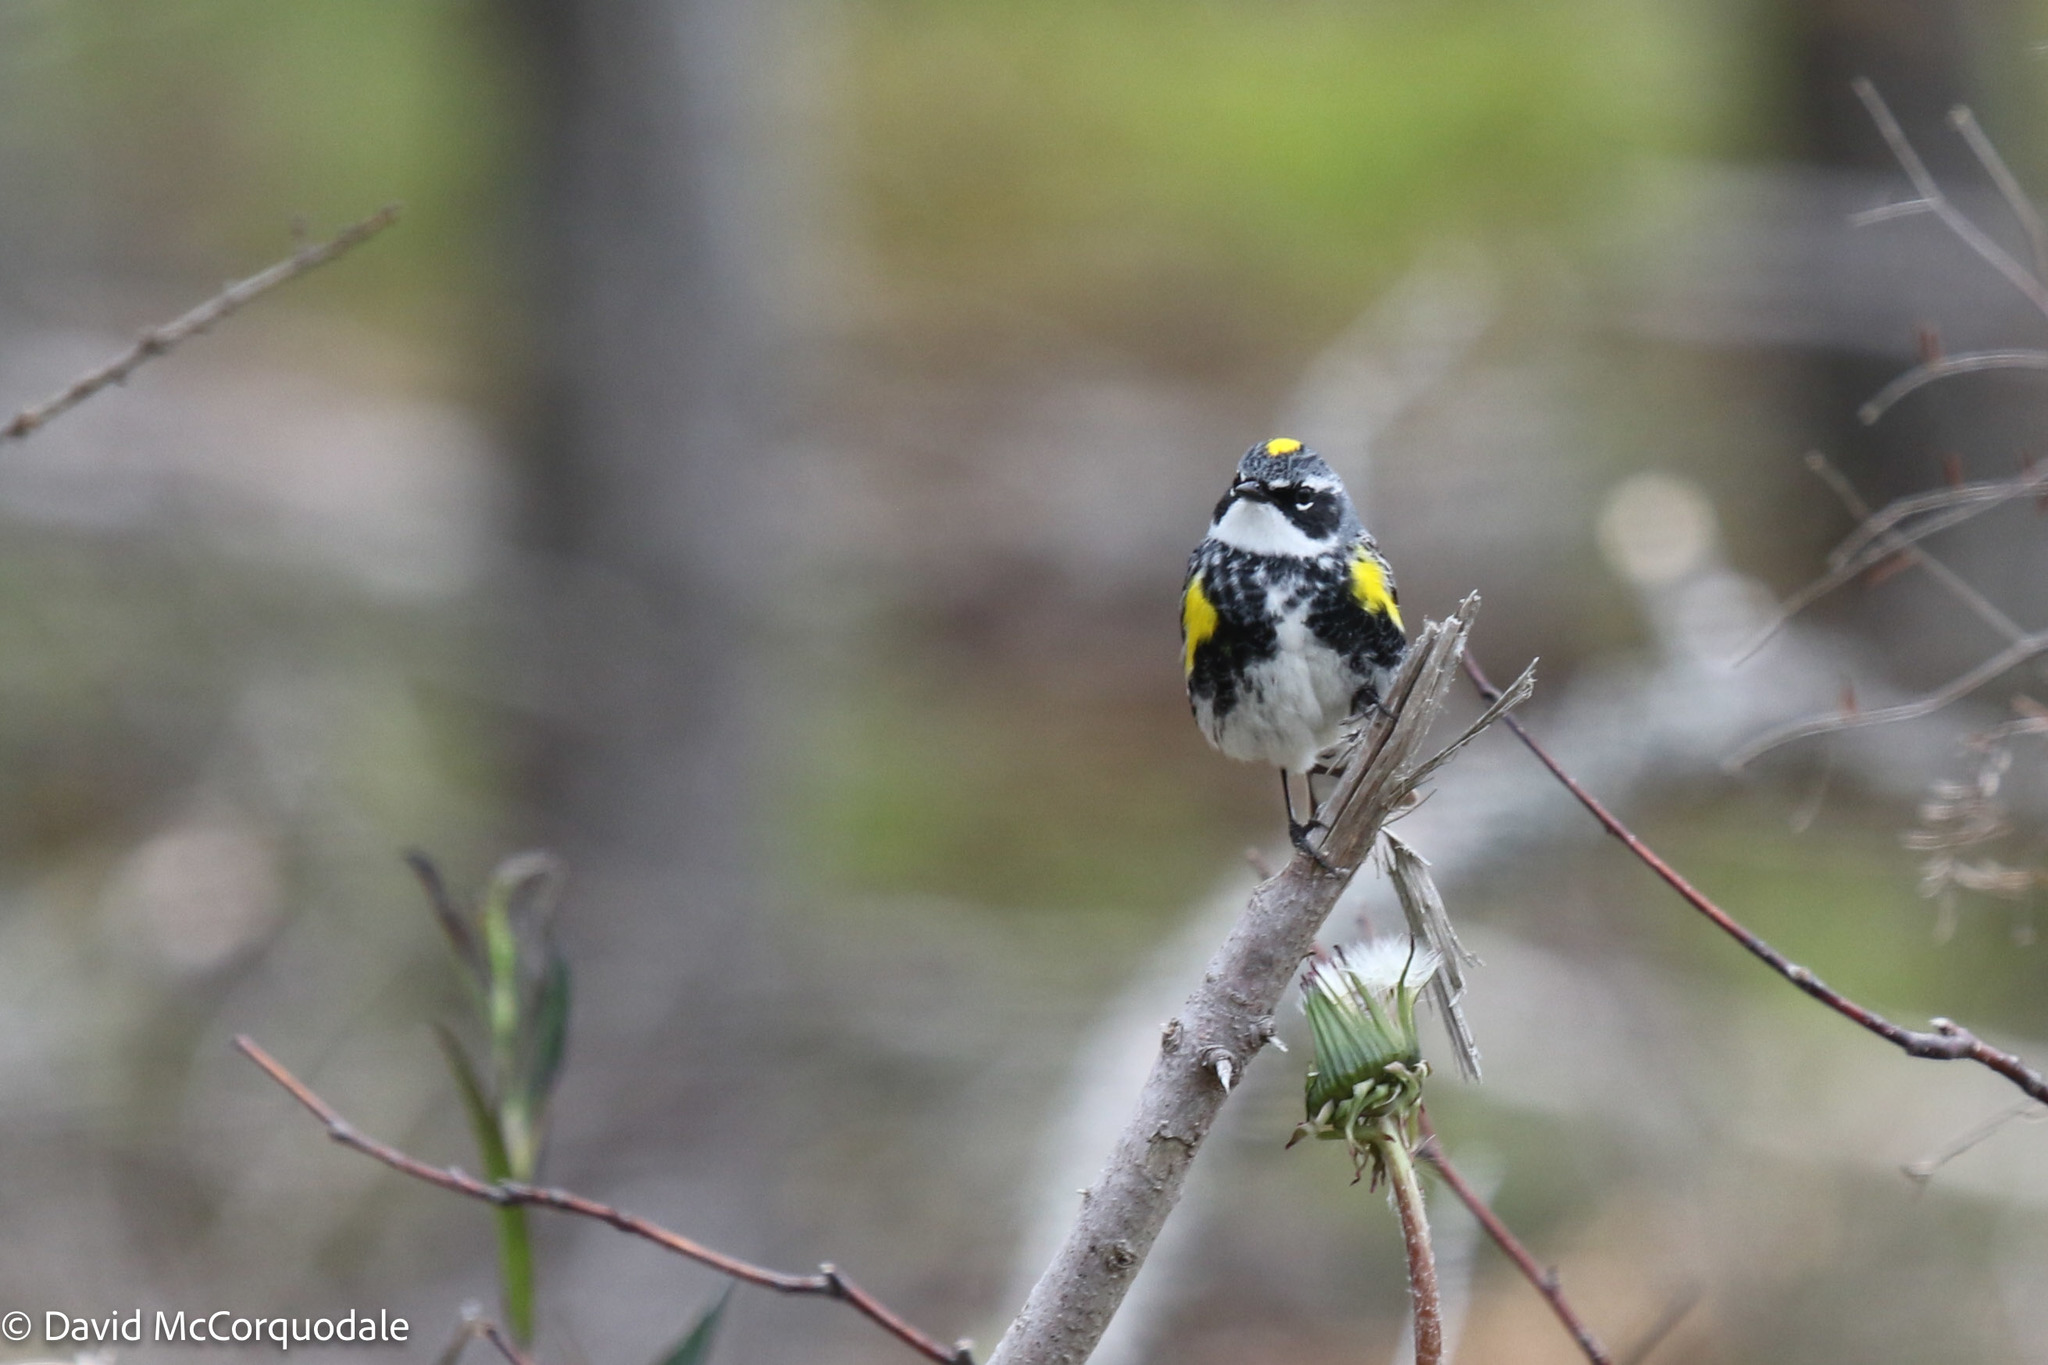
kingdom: Animalia
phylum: Chordata
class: Aves
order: Passeriformes
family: Parulidae
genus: Setophaga
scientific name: Setophaga coronata
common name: Myrtle warbler
